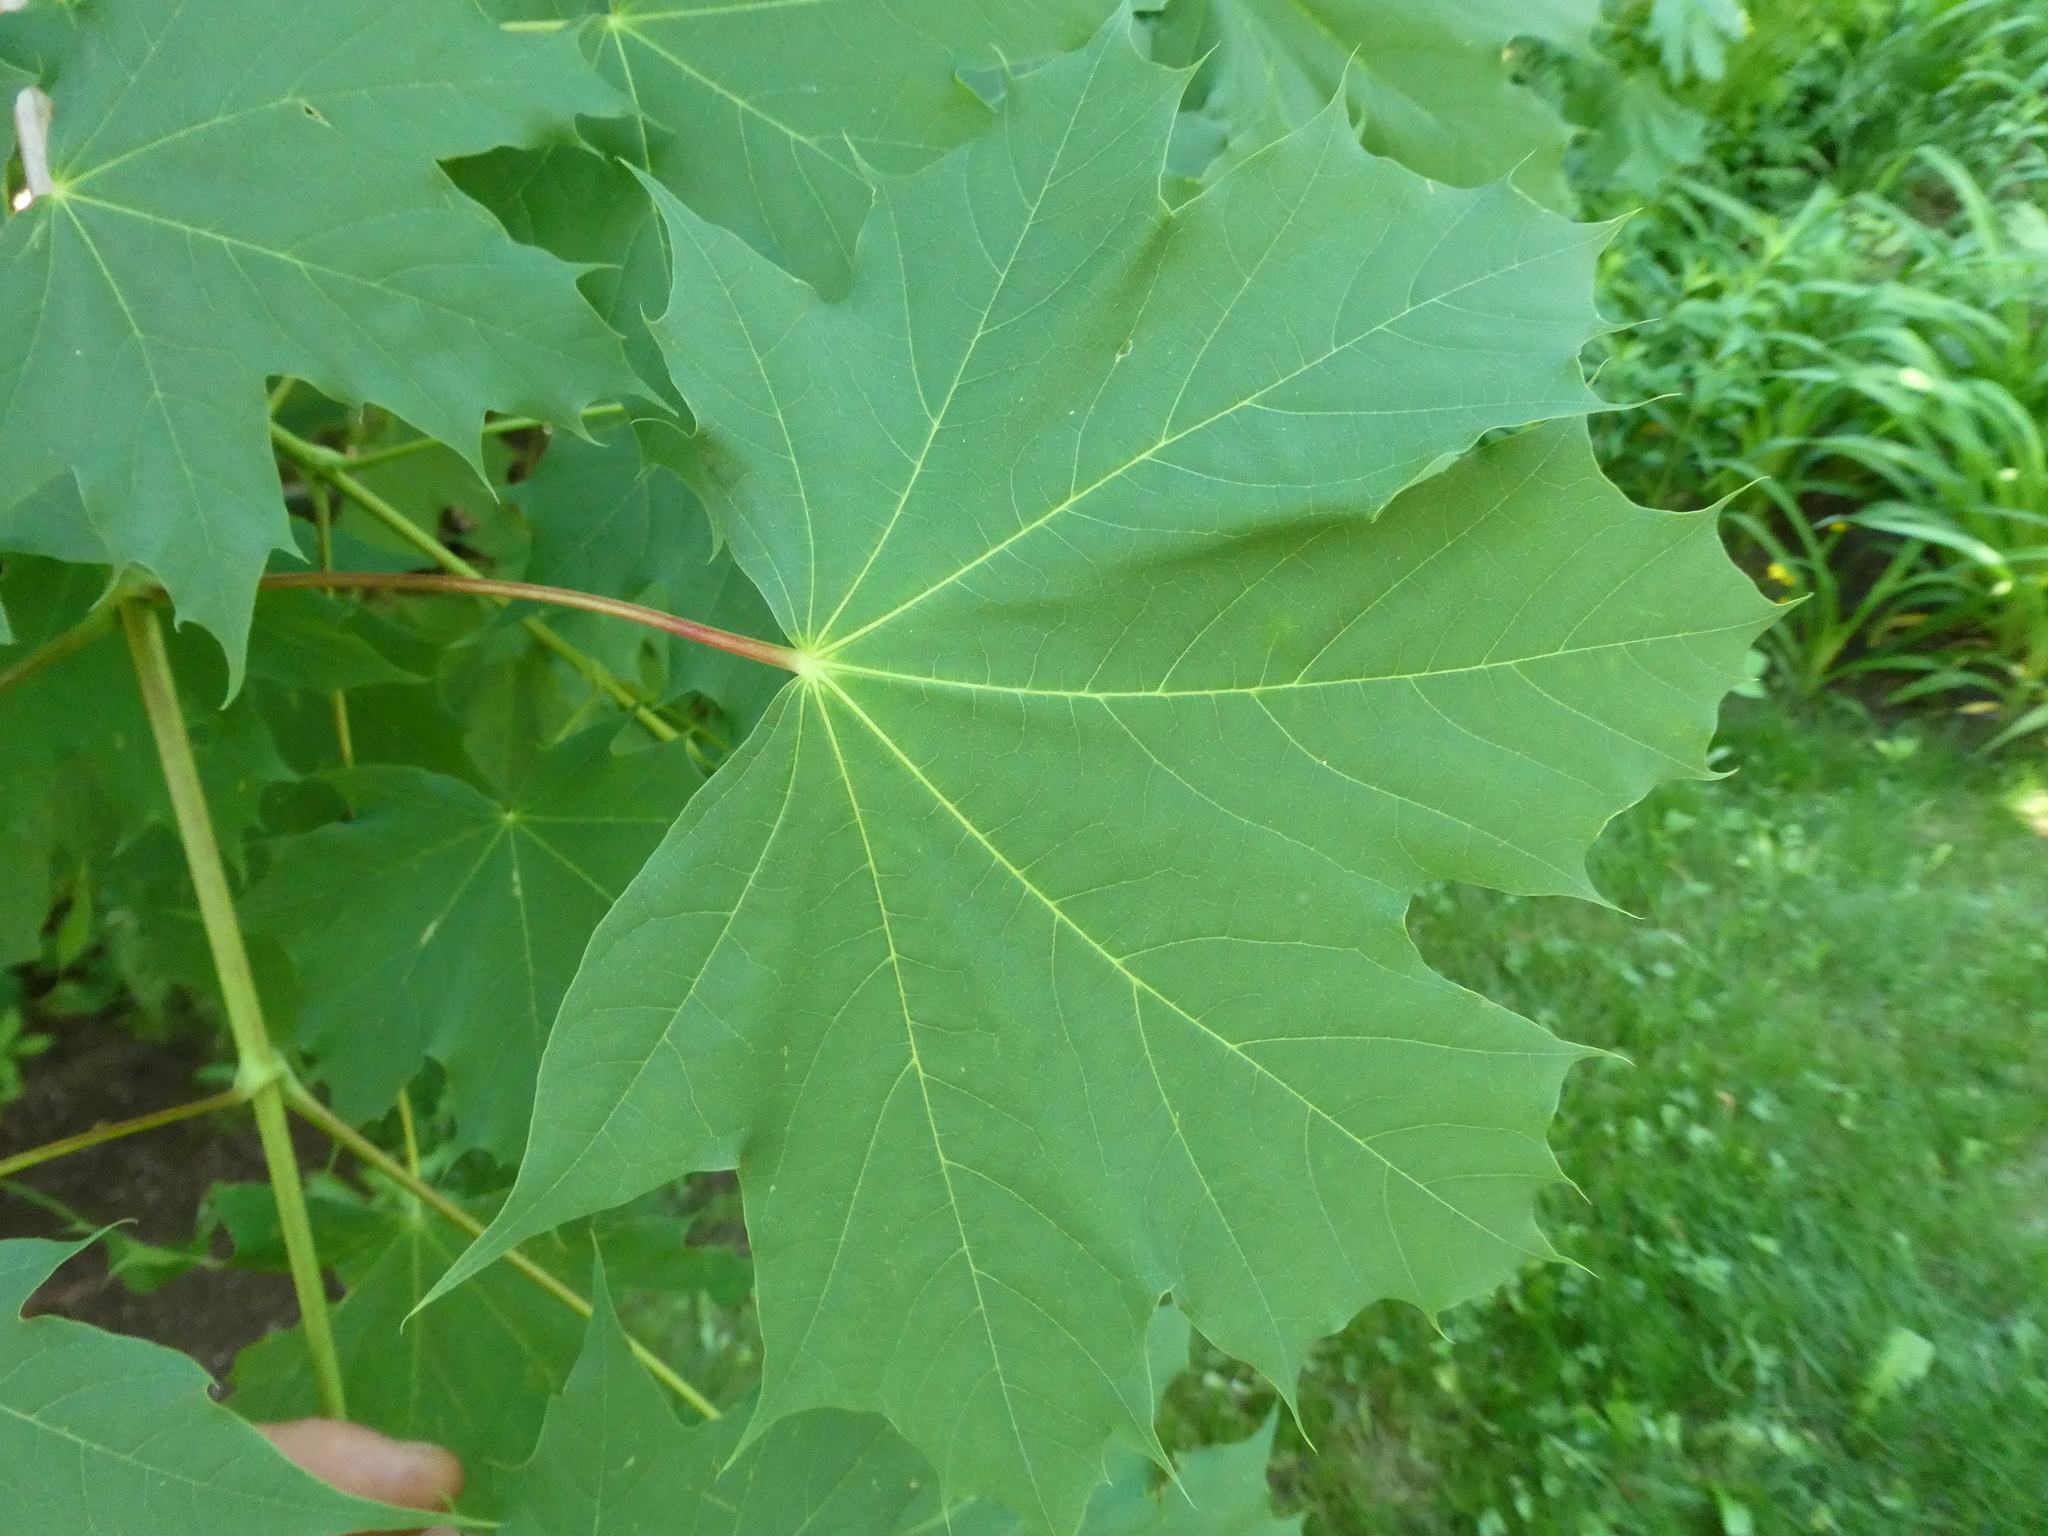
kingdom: Plantae
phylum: Tracheophyta
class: Magnoliopsida
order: Sapindales
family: Sapindaceae
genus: Acer
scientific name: Acer platanoides
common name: Norway maple
